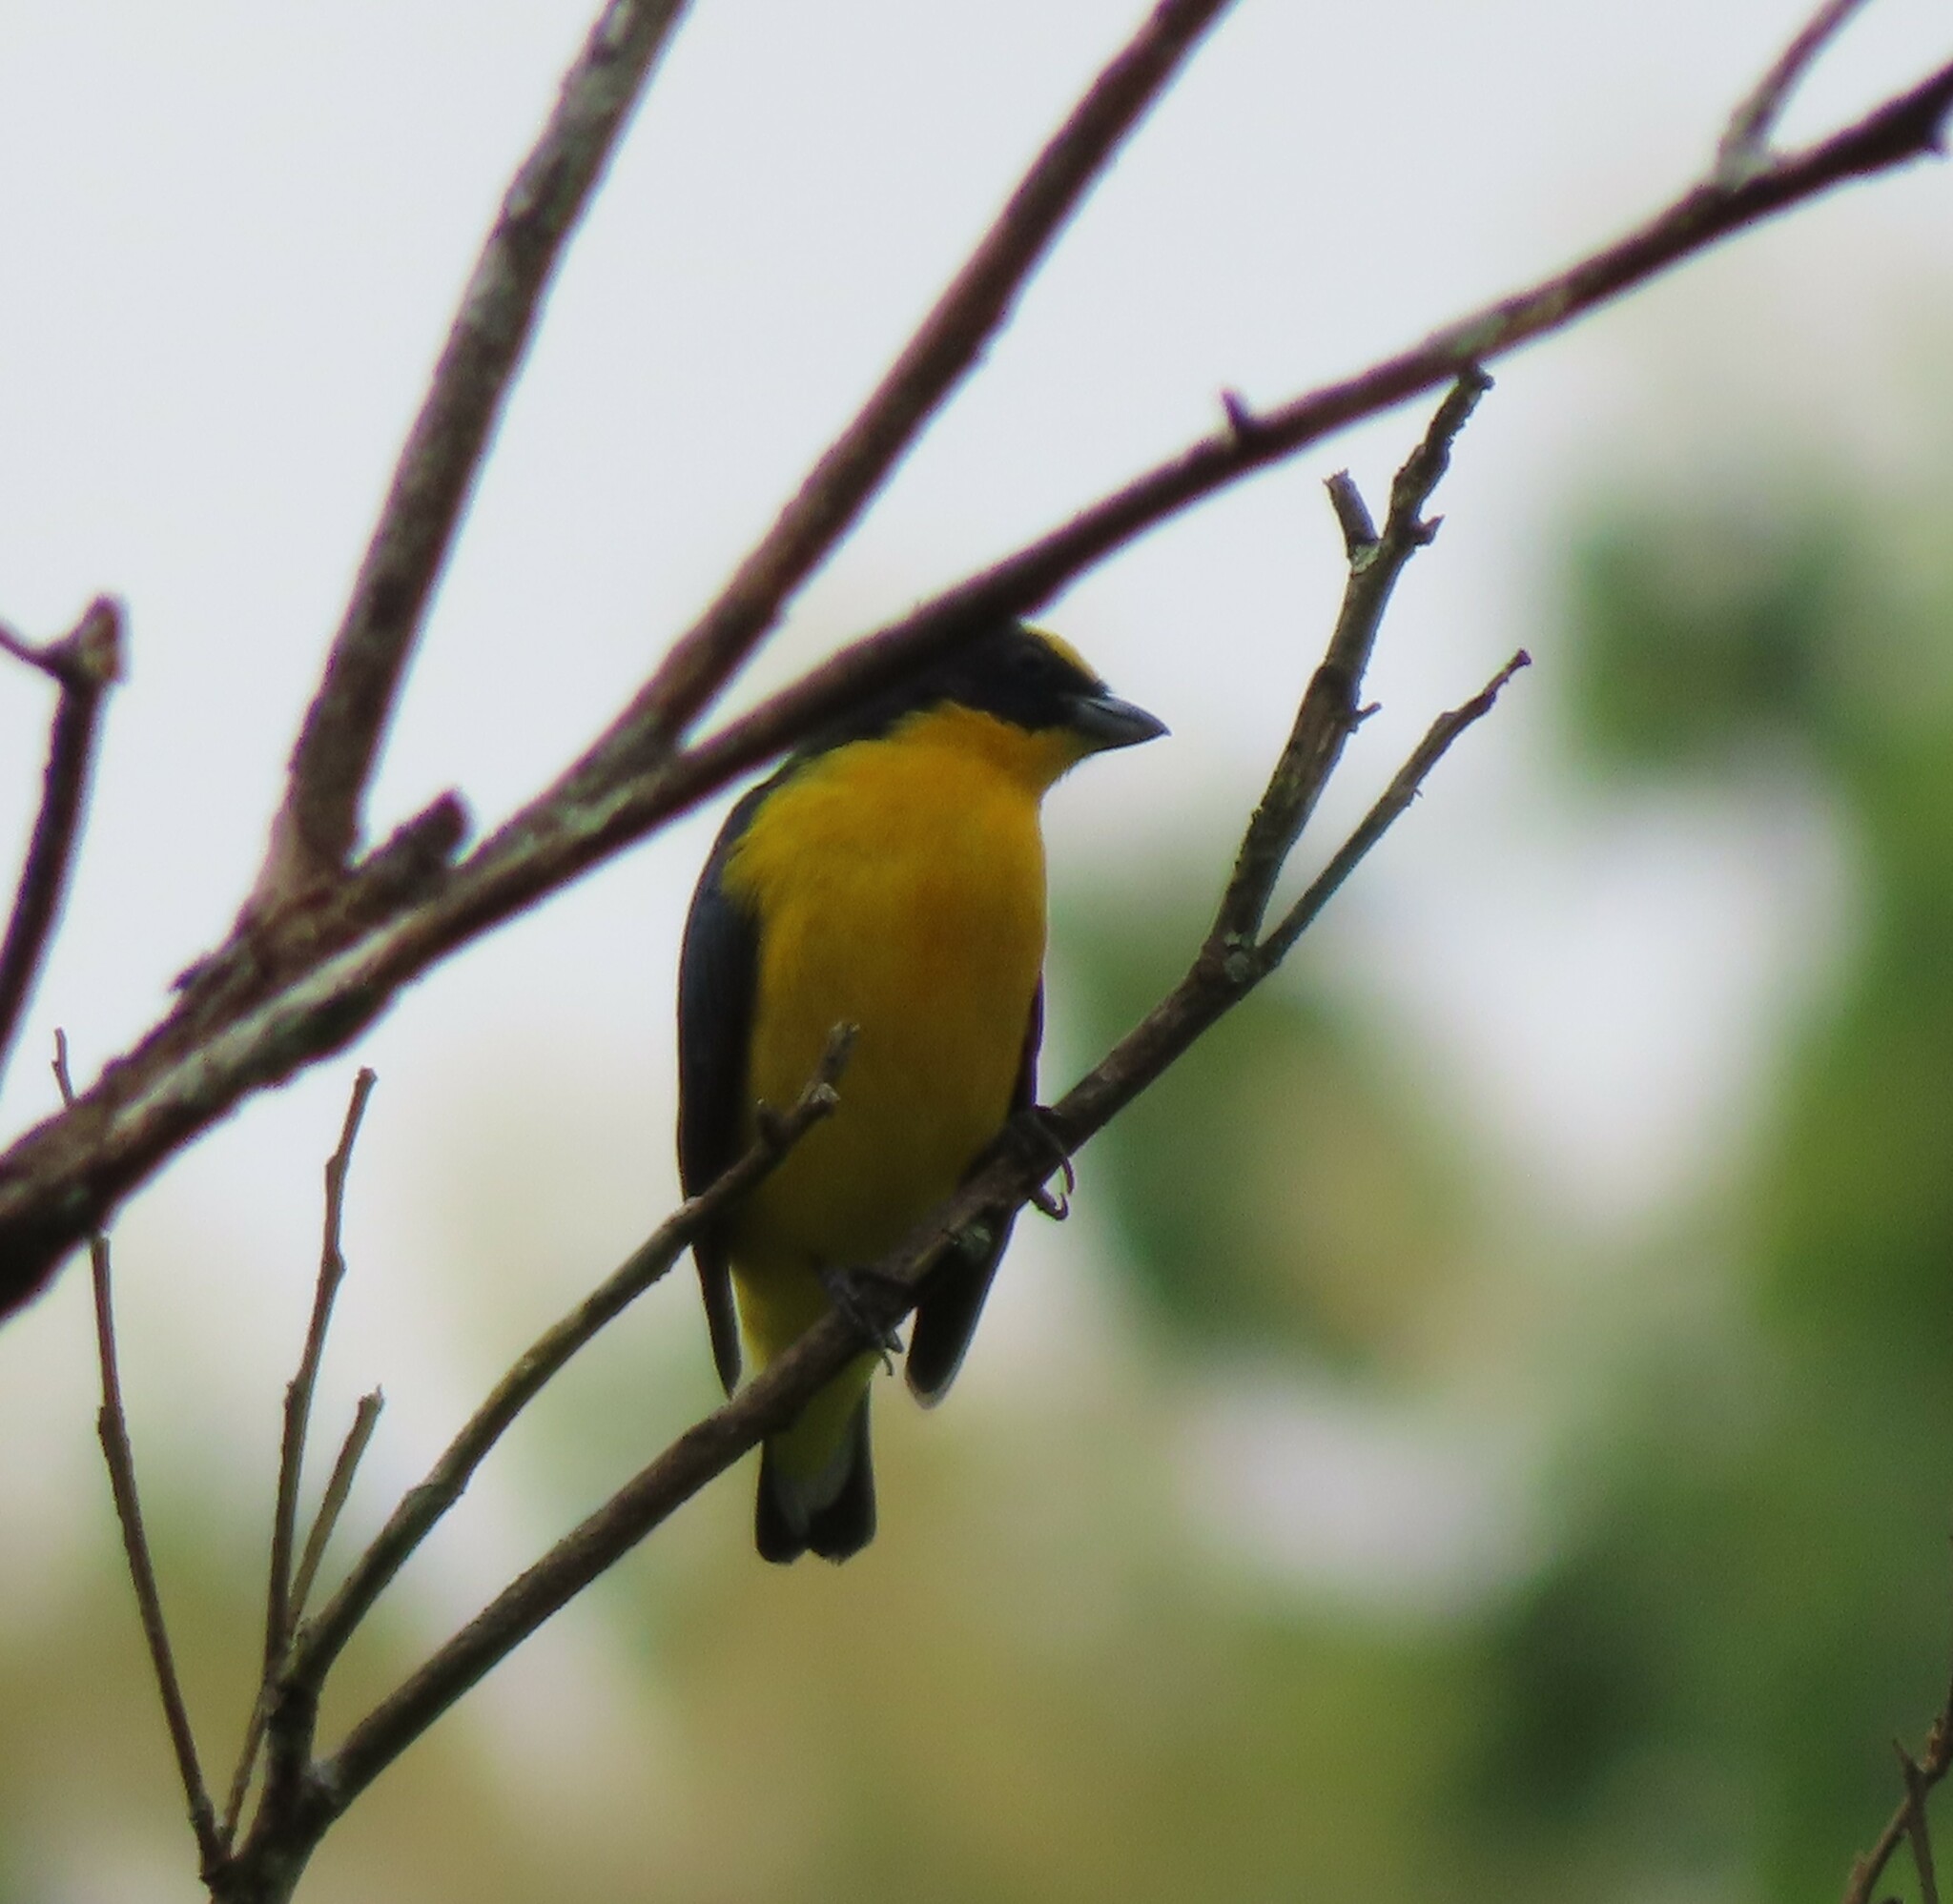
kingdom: Animalia
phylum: Chordata
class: Aves
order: Passeriformes
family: Fringillidae
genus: Euphonia
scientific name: Euphonia laniirostris
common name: Thick-billed euphonia
